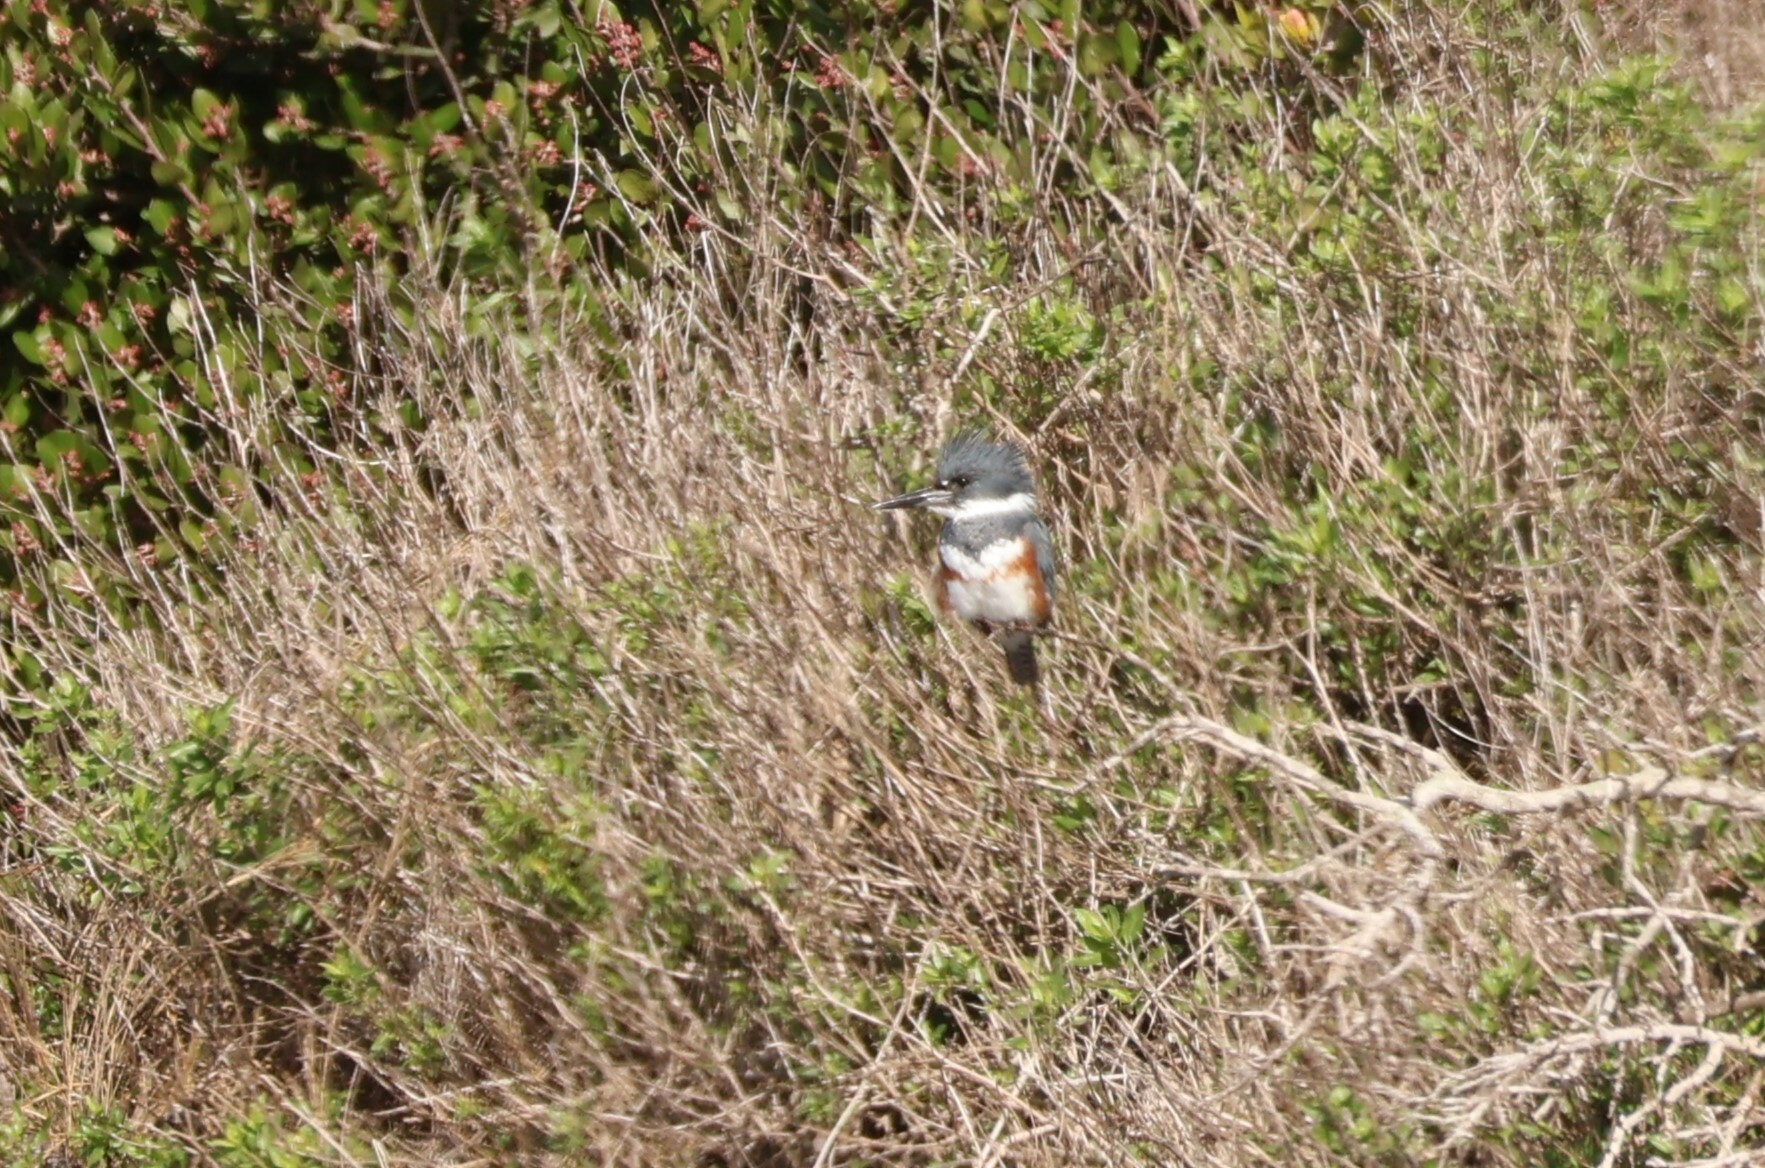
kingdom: Animalia
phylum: Chordata
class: Aves
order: Coraciiformes
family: Alcedinidae
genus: Megaceryle
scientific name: Megaceryle alcyon
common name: Belted kingfisher
